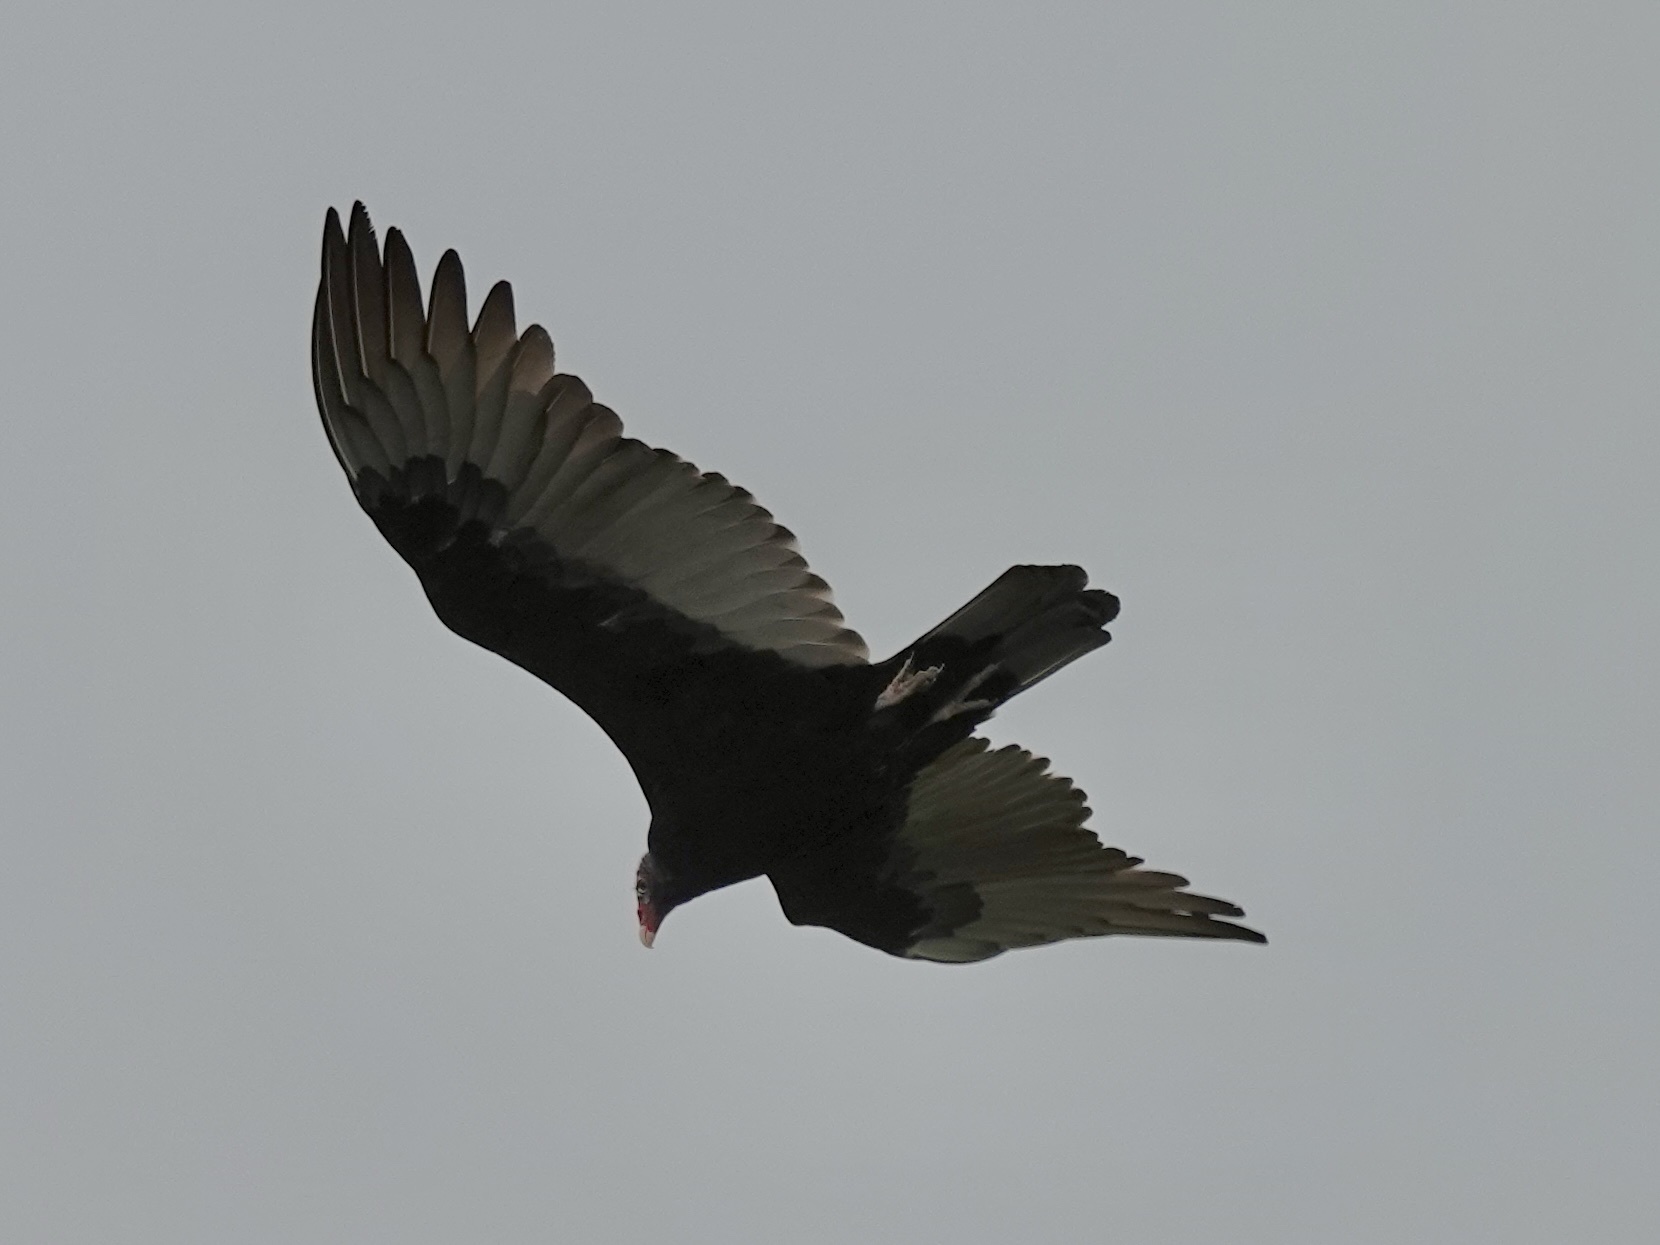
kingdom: Animalia
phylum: Chordata
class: Aves
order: Accipitriformes
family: Cathartidae
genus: Cathartes
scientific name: Cathartes aura
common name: Turkey vulture
